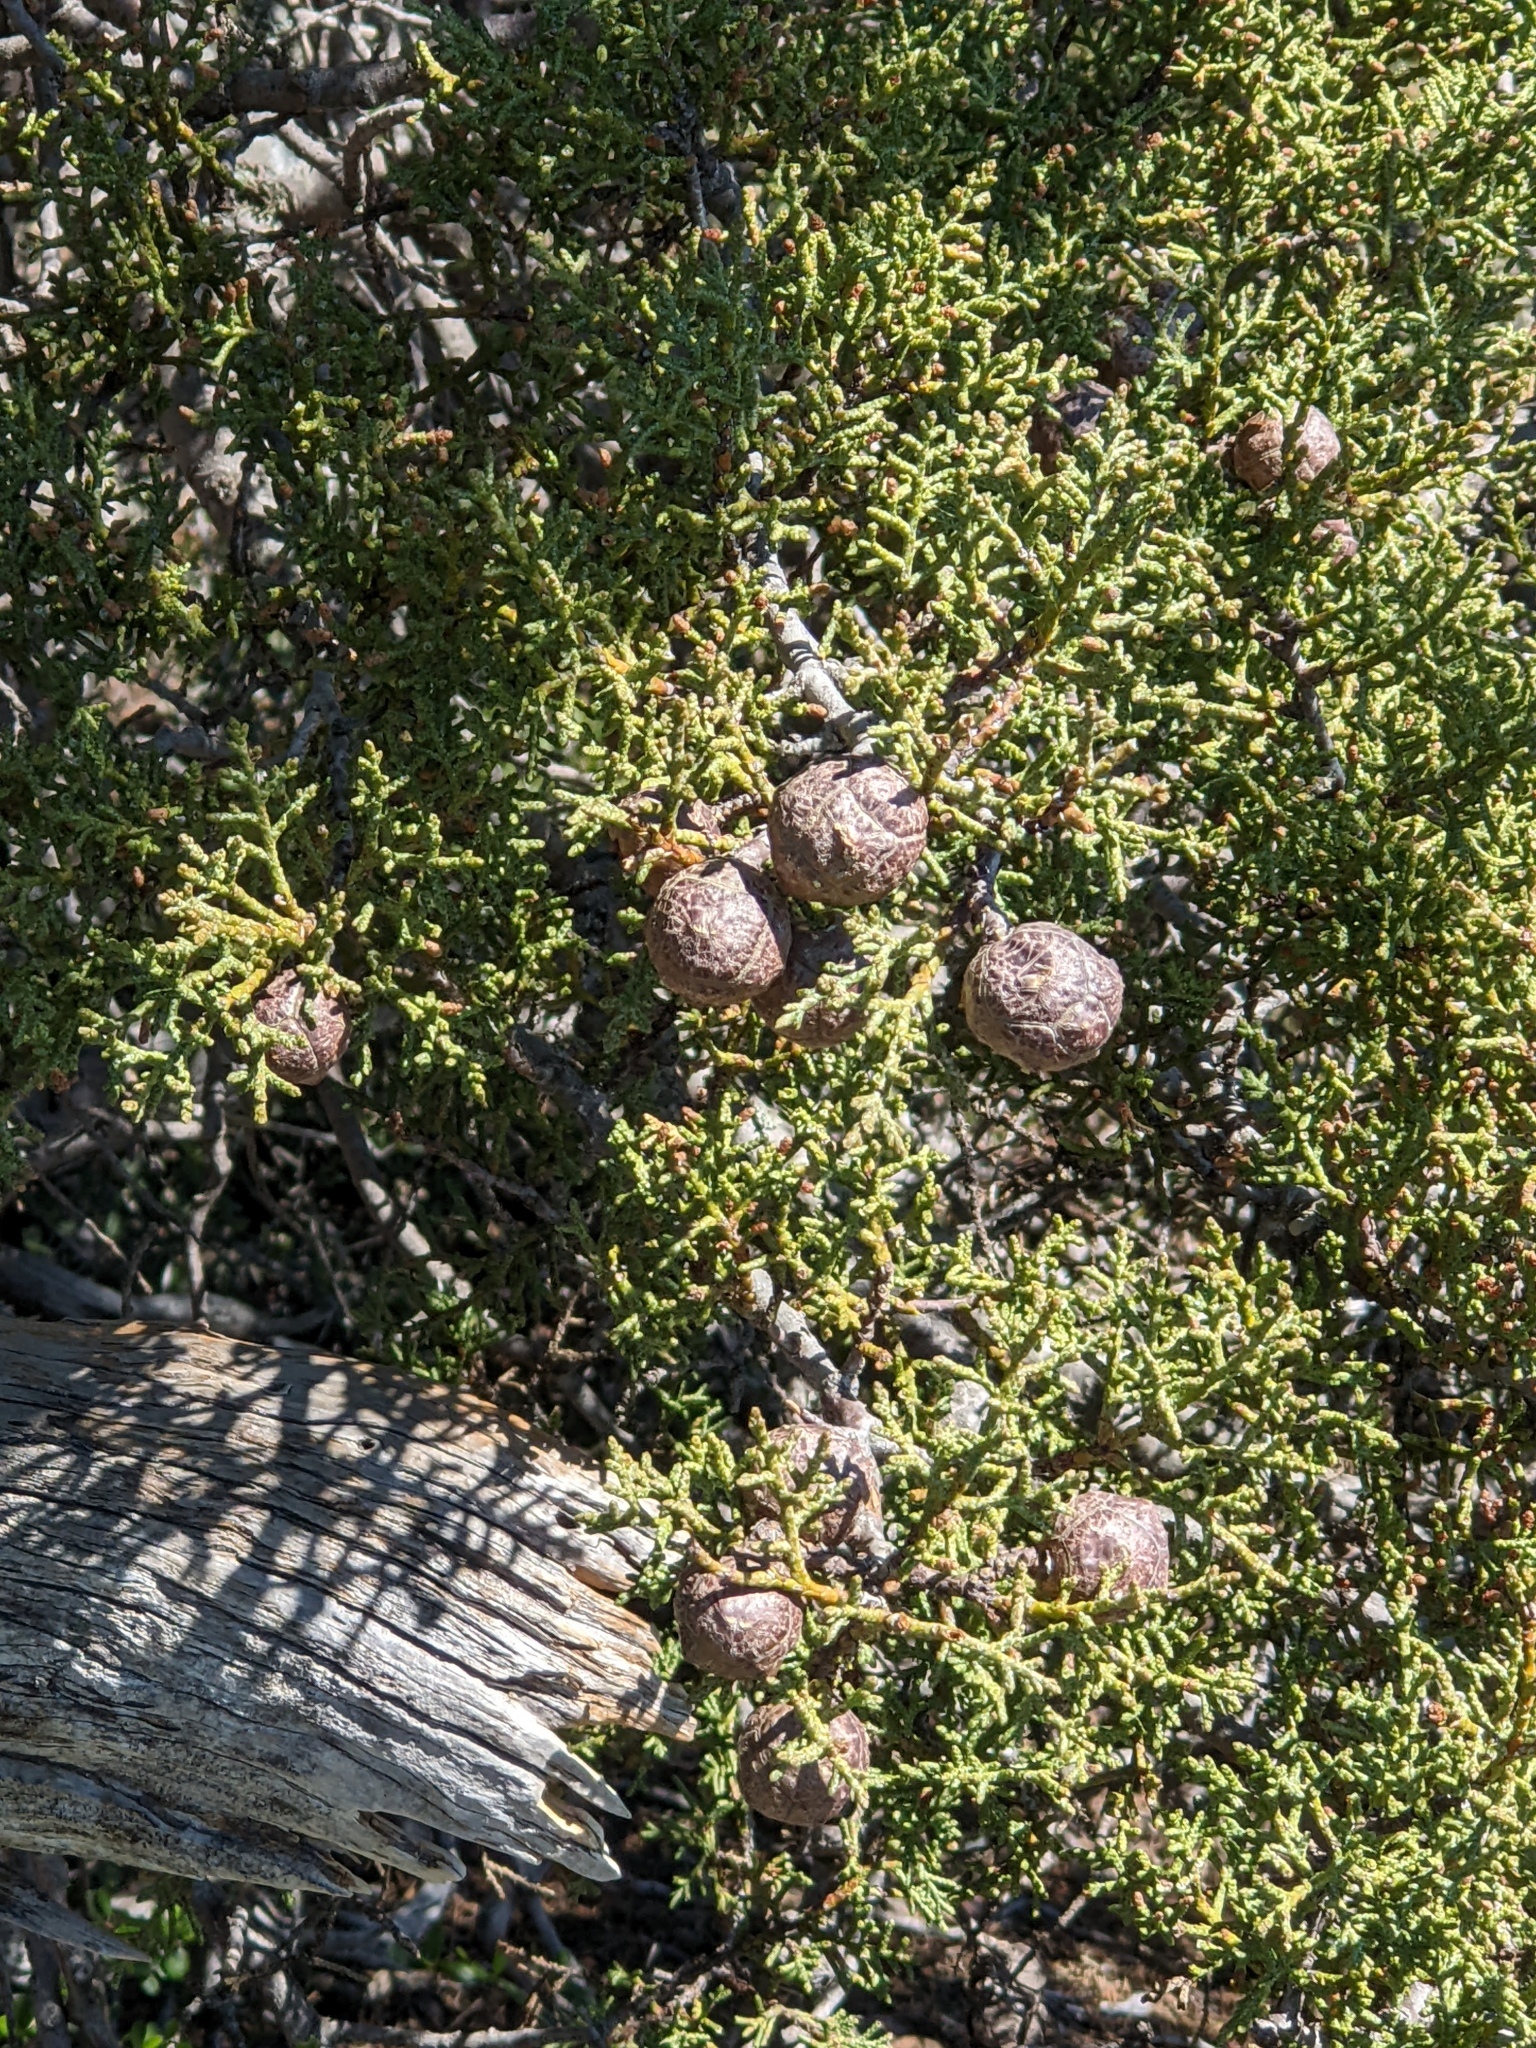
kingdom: Plantae
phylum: Tracheophyta
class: Pinopsida
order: Pinales
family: Cupressaceae
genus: Cupressus
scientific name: Cupressus sargentii
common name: Sargent cypress
